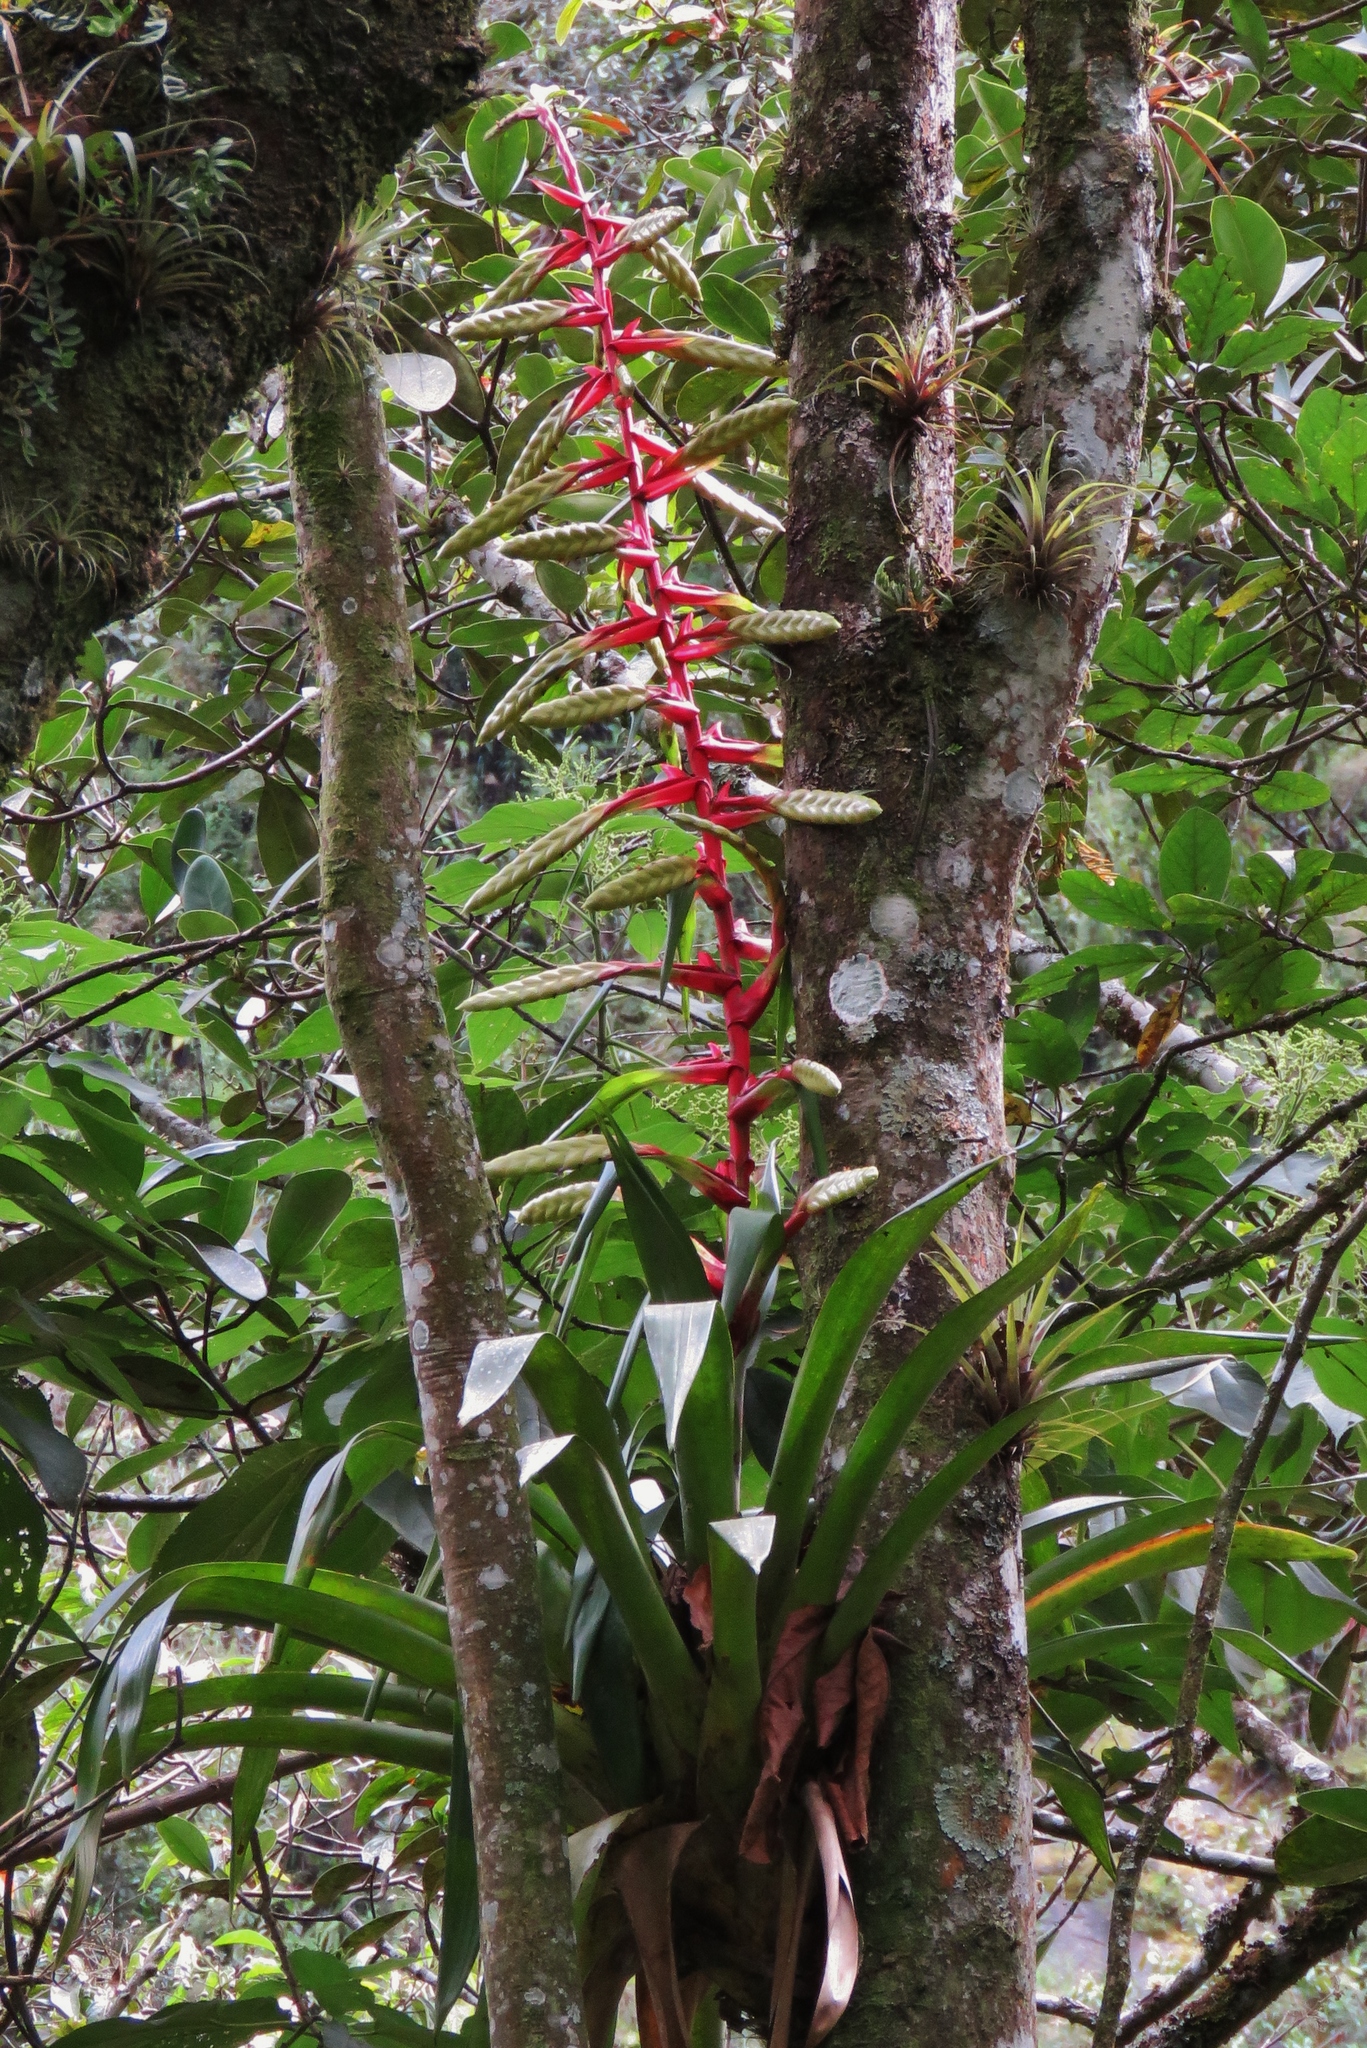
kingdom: Plantae
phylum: Tracheophyta
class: Liliopsida
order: Poales
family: Bromeliaceae
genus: Tillandsia
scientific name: Tillandsia fendleri
